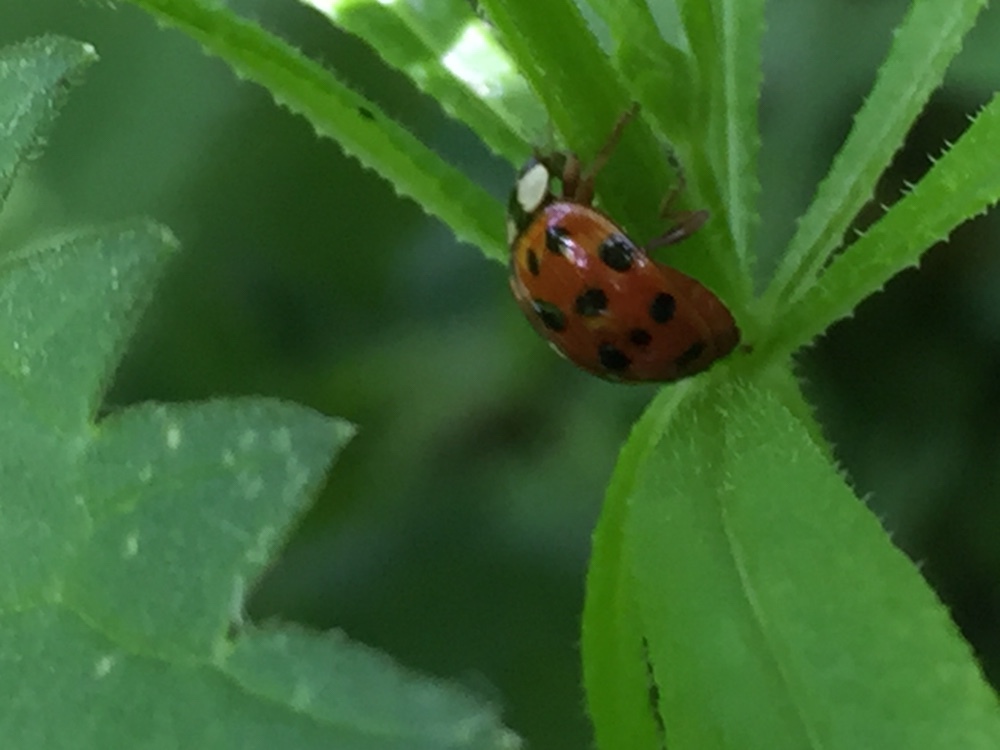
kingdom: Animalia
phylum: Arthropoda
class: Insecta
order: Coleoptera
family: Coccinellidae
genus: Harmonia
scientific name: Harmonia axyridis
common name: Harlequin ladybird
